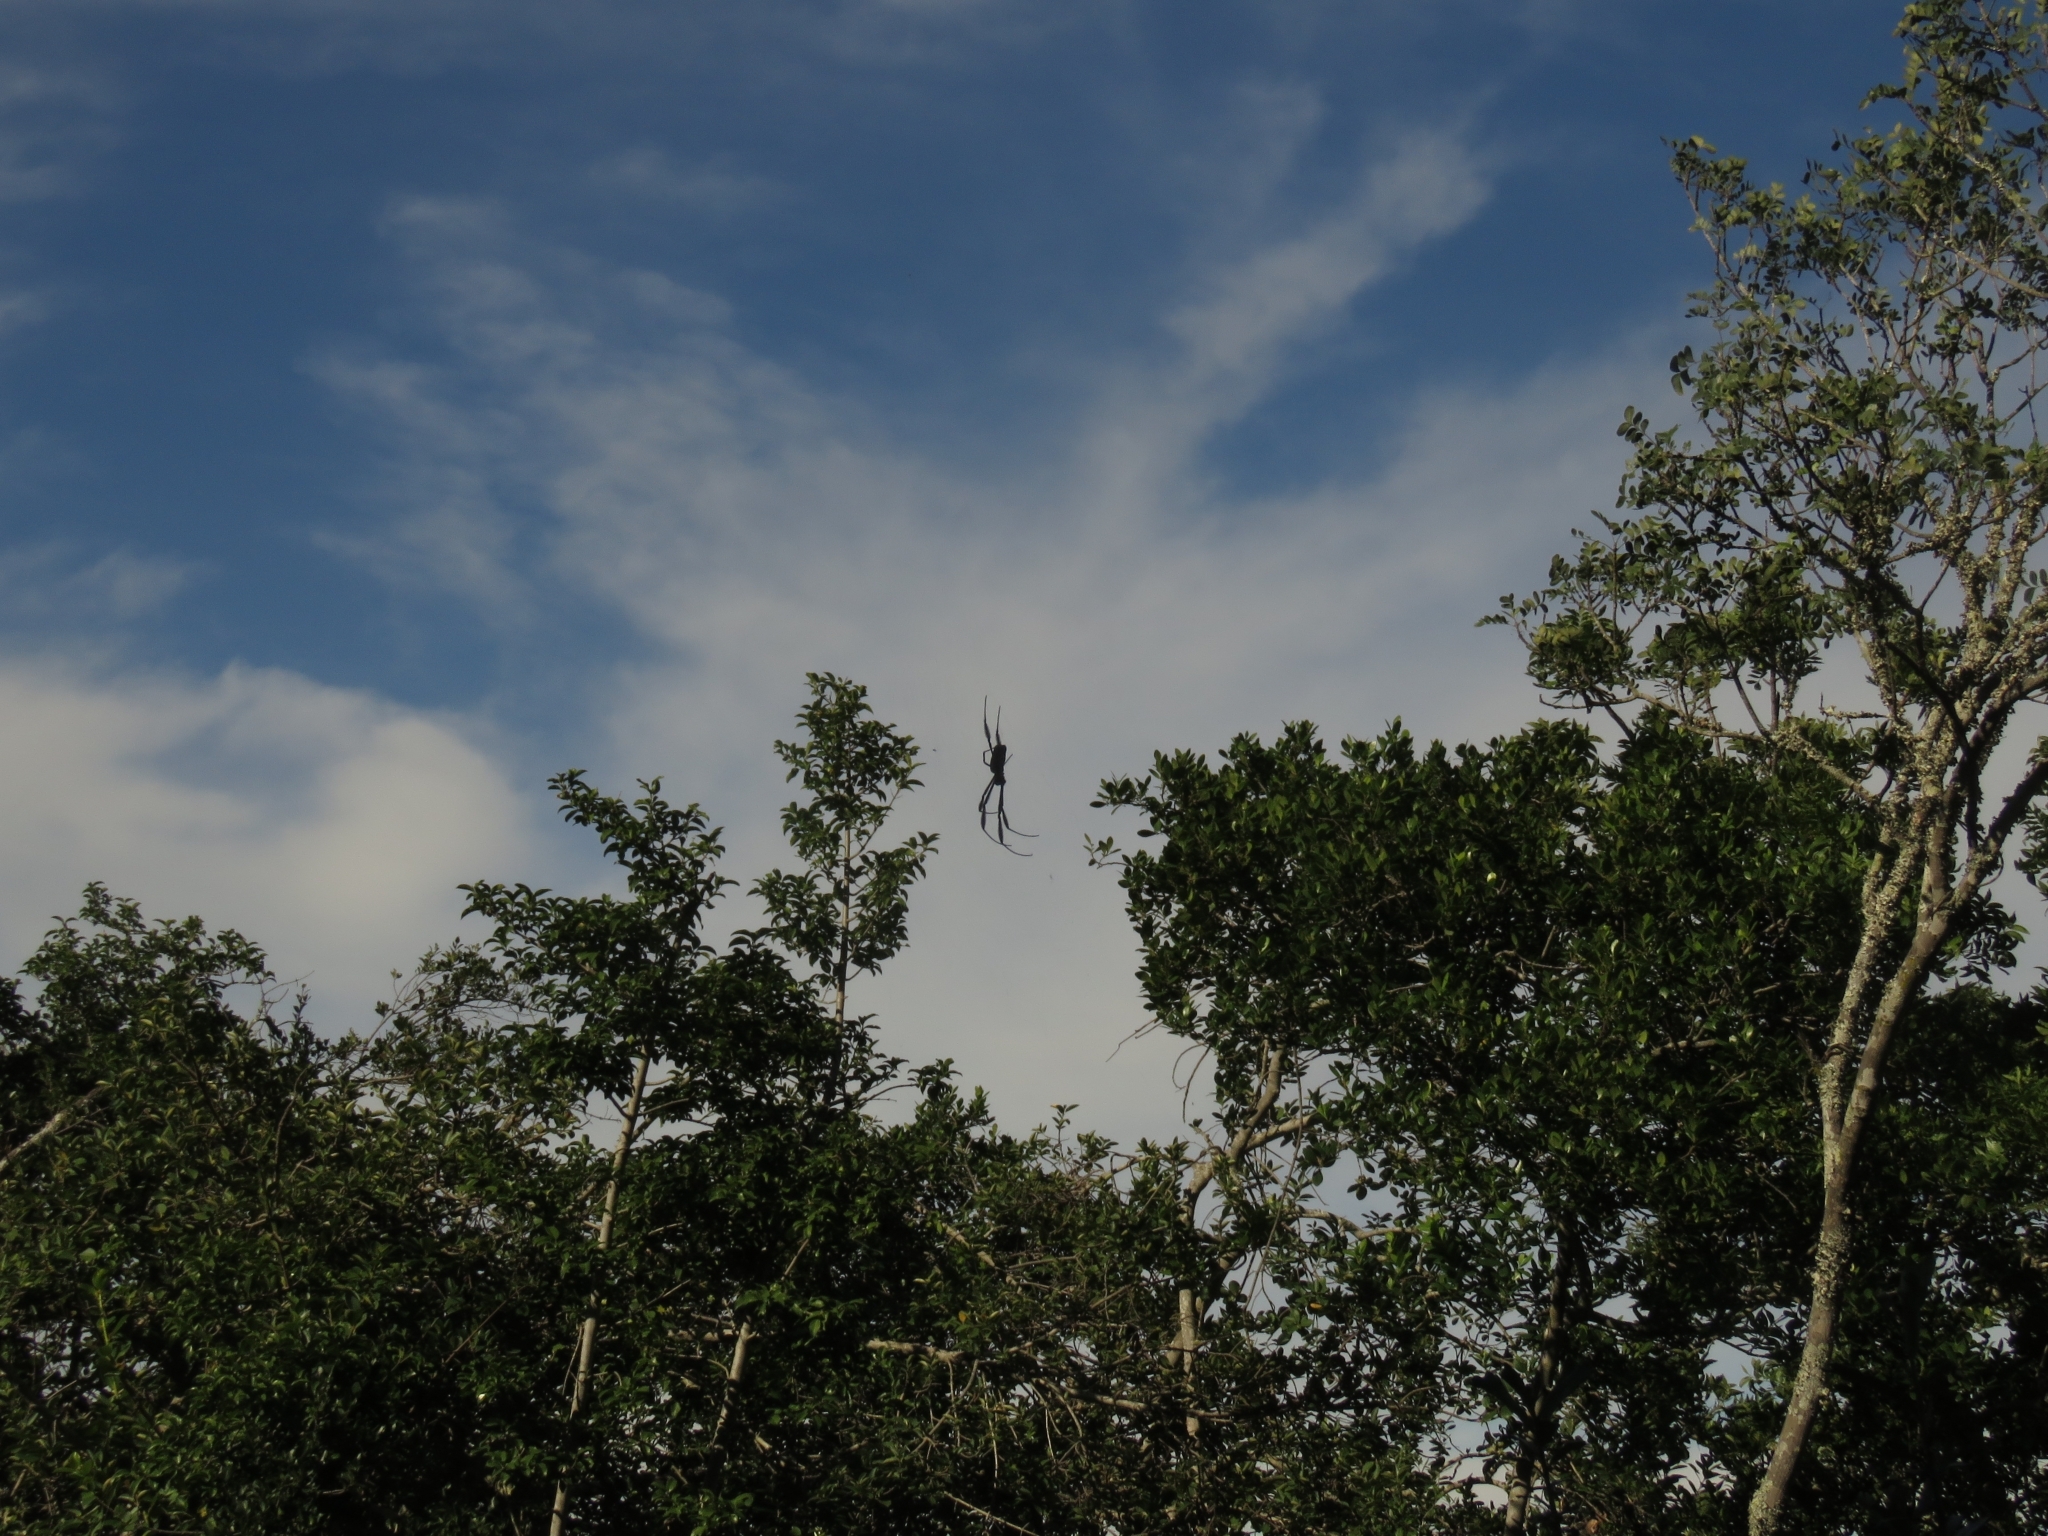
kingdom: Animalia
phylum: Arthropoda
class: Arachnida
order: Araneae
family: Araneidae
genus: Trichonephila
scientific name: Trichonephila fenestrata
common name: Hairy golden orb weaver
